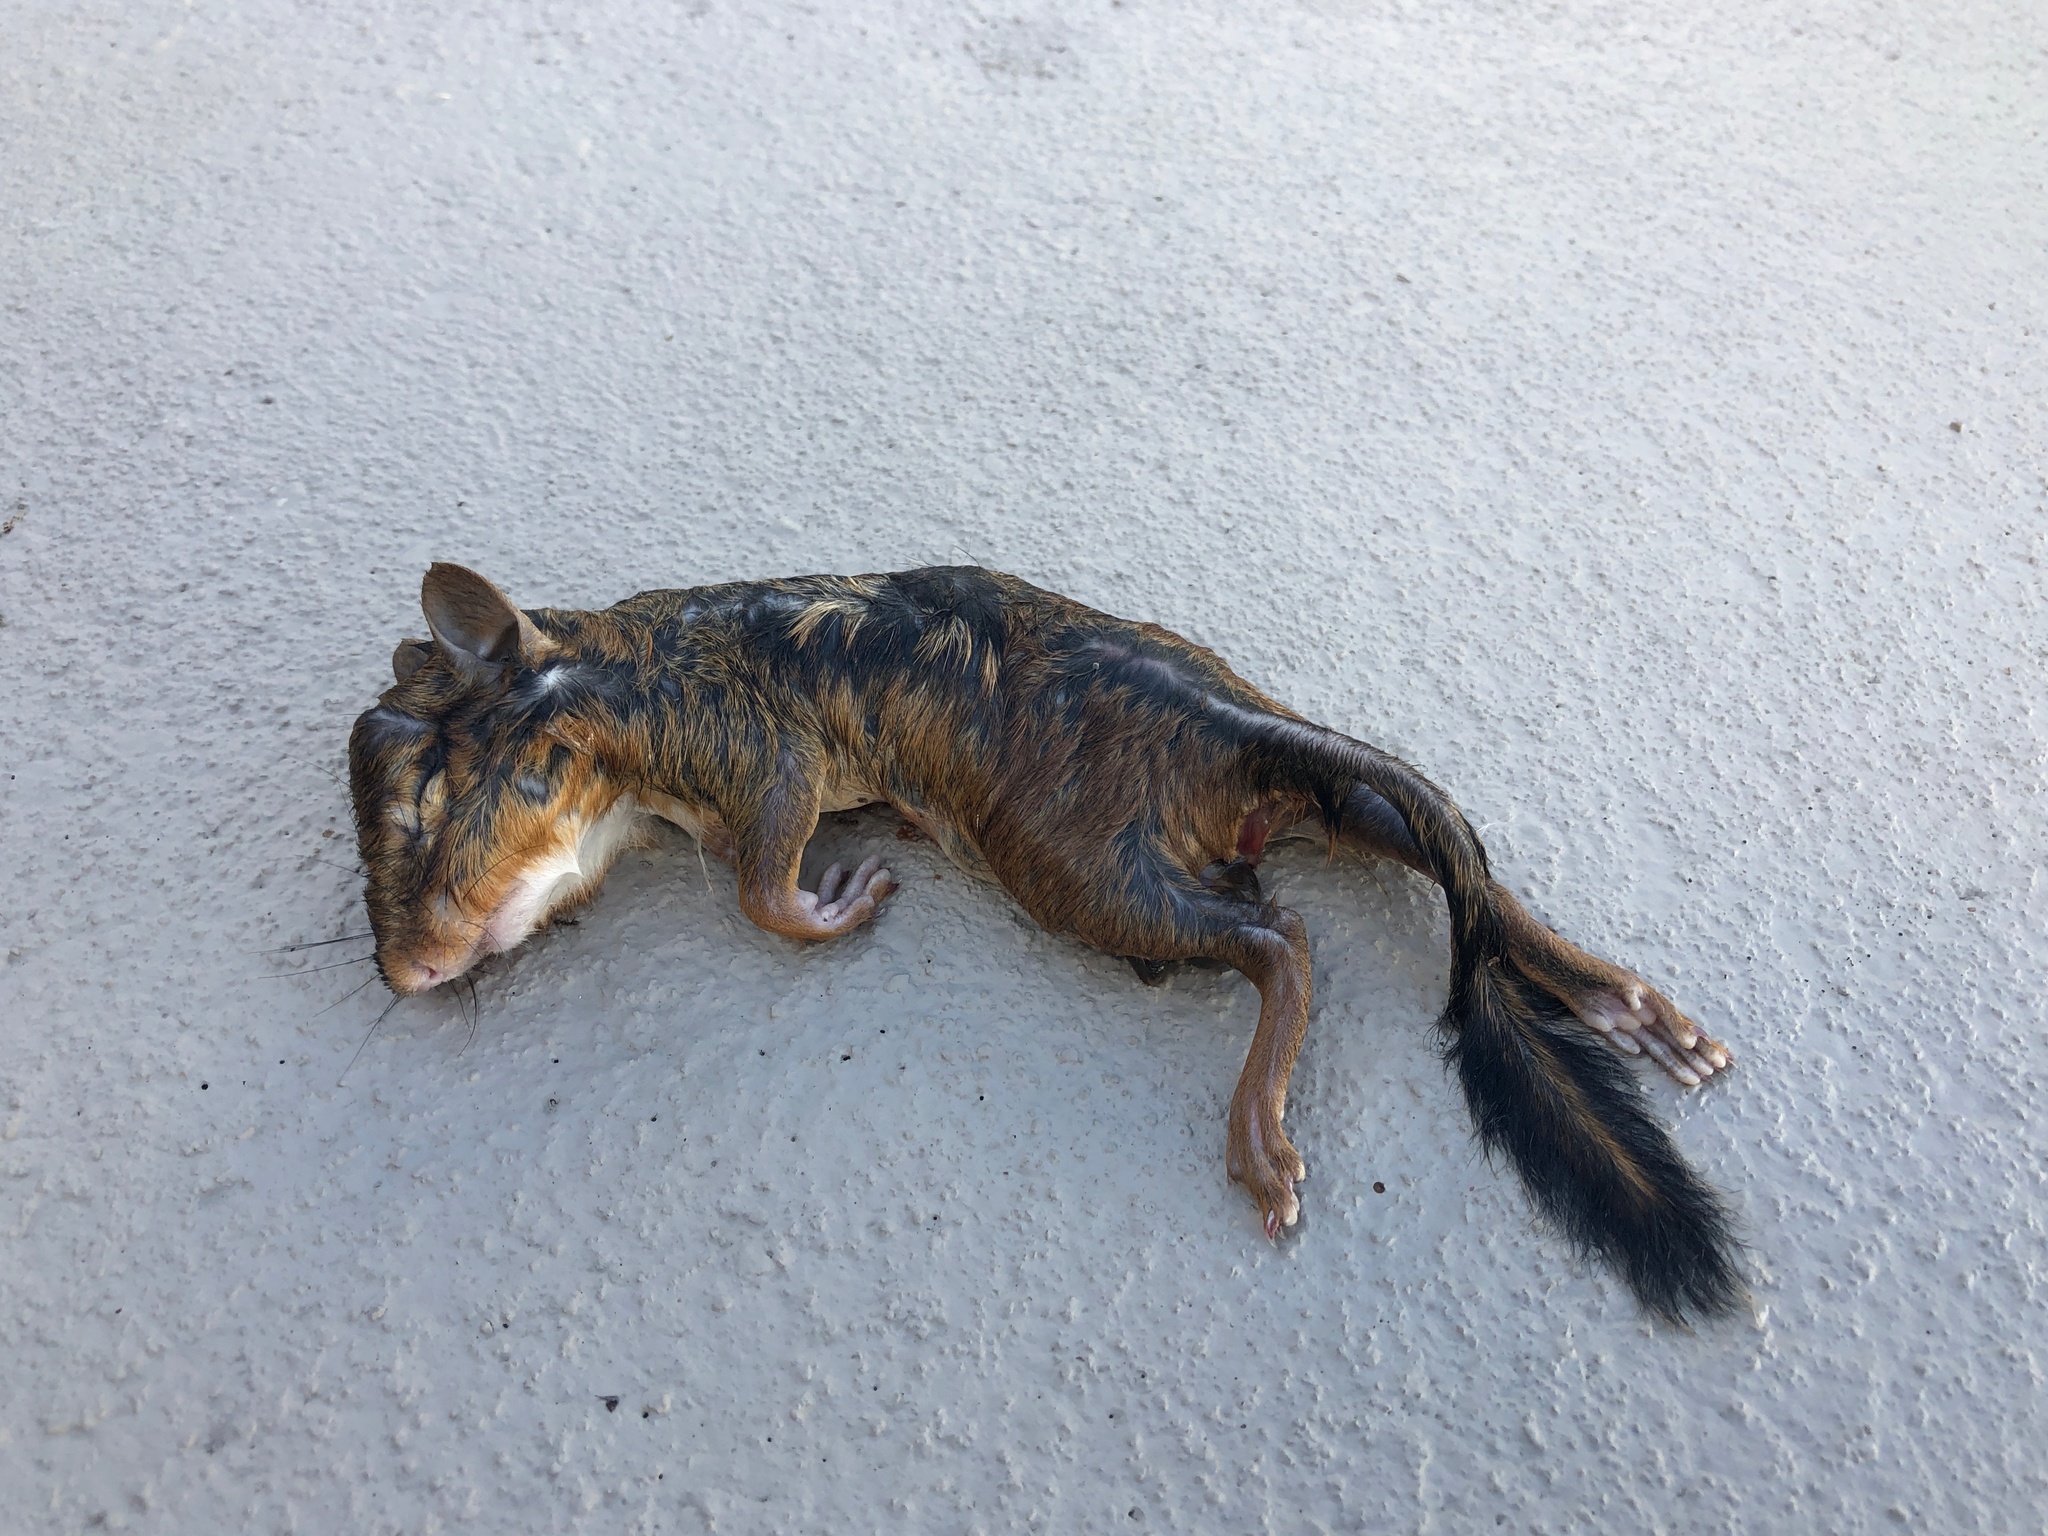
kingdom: Animalia
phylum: Chordata
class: Mammalia
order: Rodentia
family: Sciuridae
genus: Tamias
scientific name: Tamias striatus
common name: Eastern chipmunk
